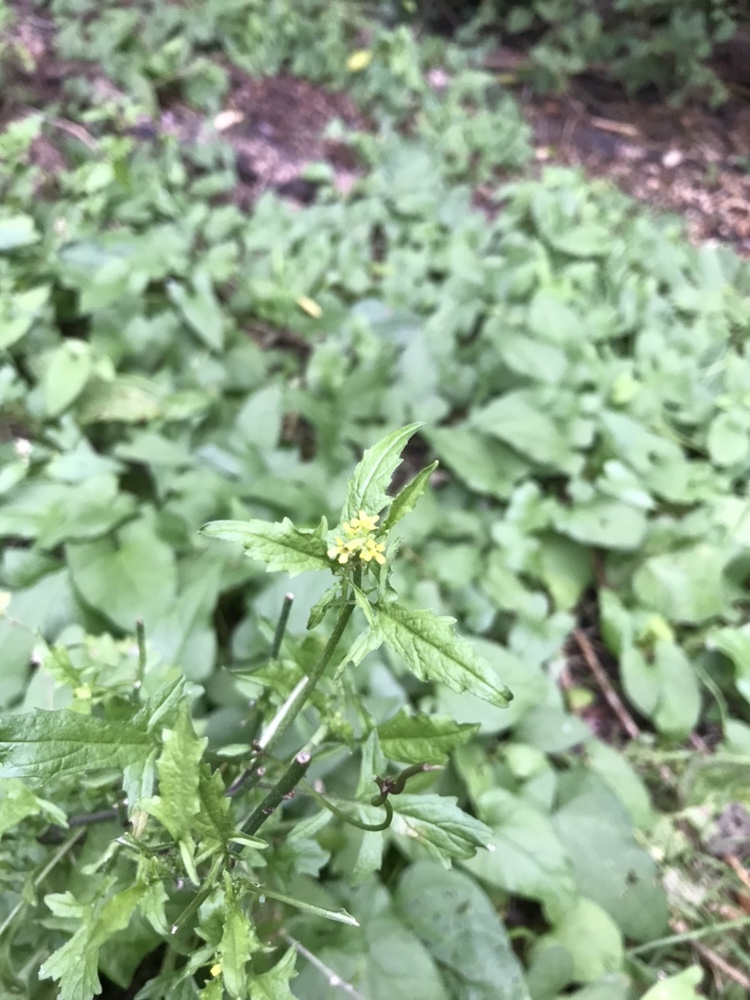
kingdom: Plantae
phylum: Tracheophyta
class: Magnoliopsida
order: Brassicales
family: Brassicaceae
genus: Sisymbrium
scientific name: Sisymbrium officinale
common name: Hedge mustard
